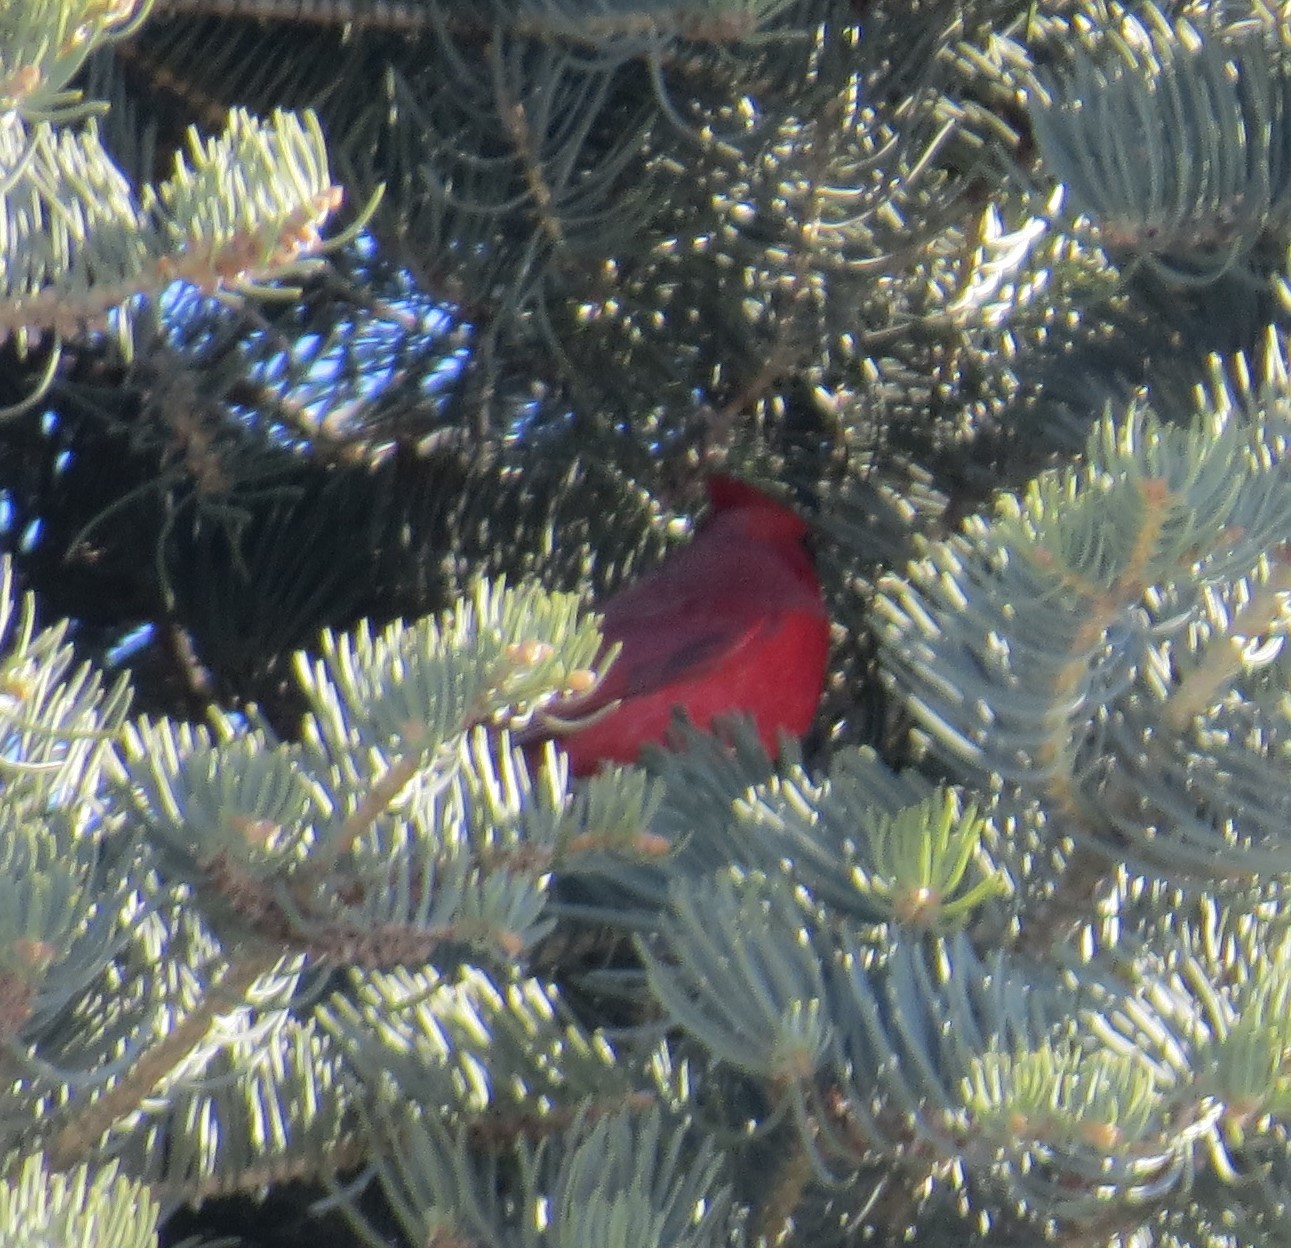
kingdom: Animalia
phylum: Chordata
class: Aves
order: Passeriformes
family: Cardinalidae
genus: Cardinalis
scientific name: Cardinalis cardinalis
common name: Northern cardinal
